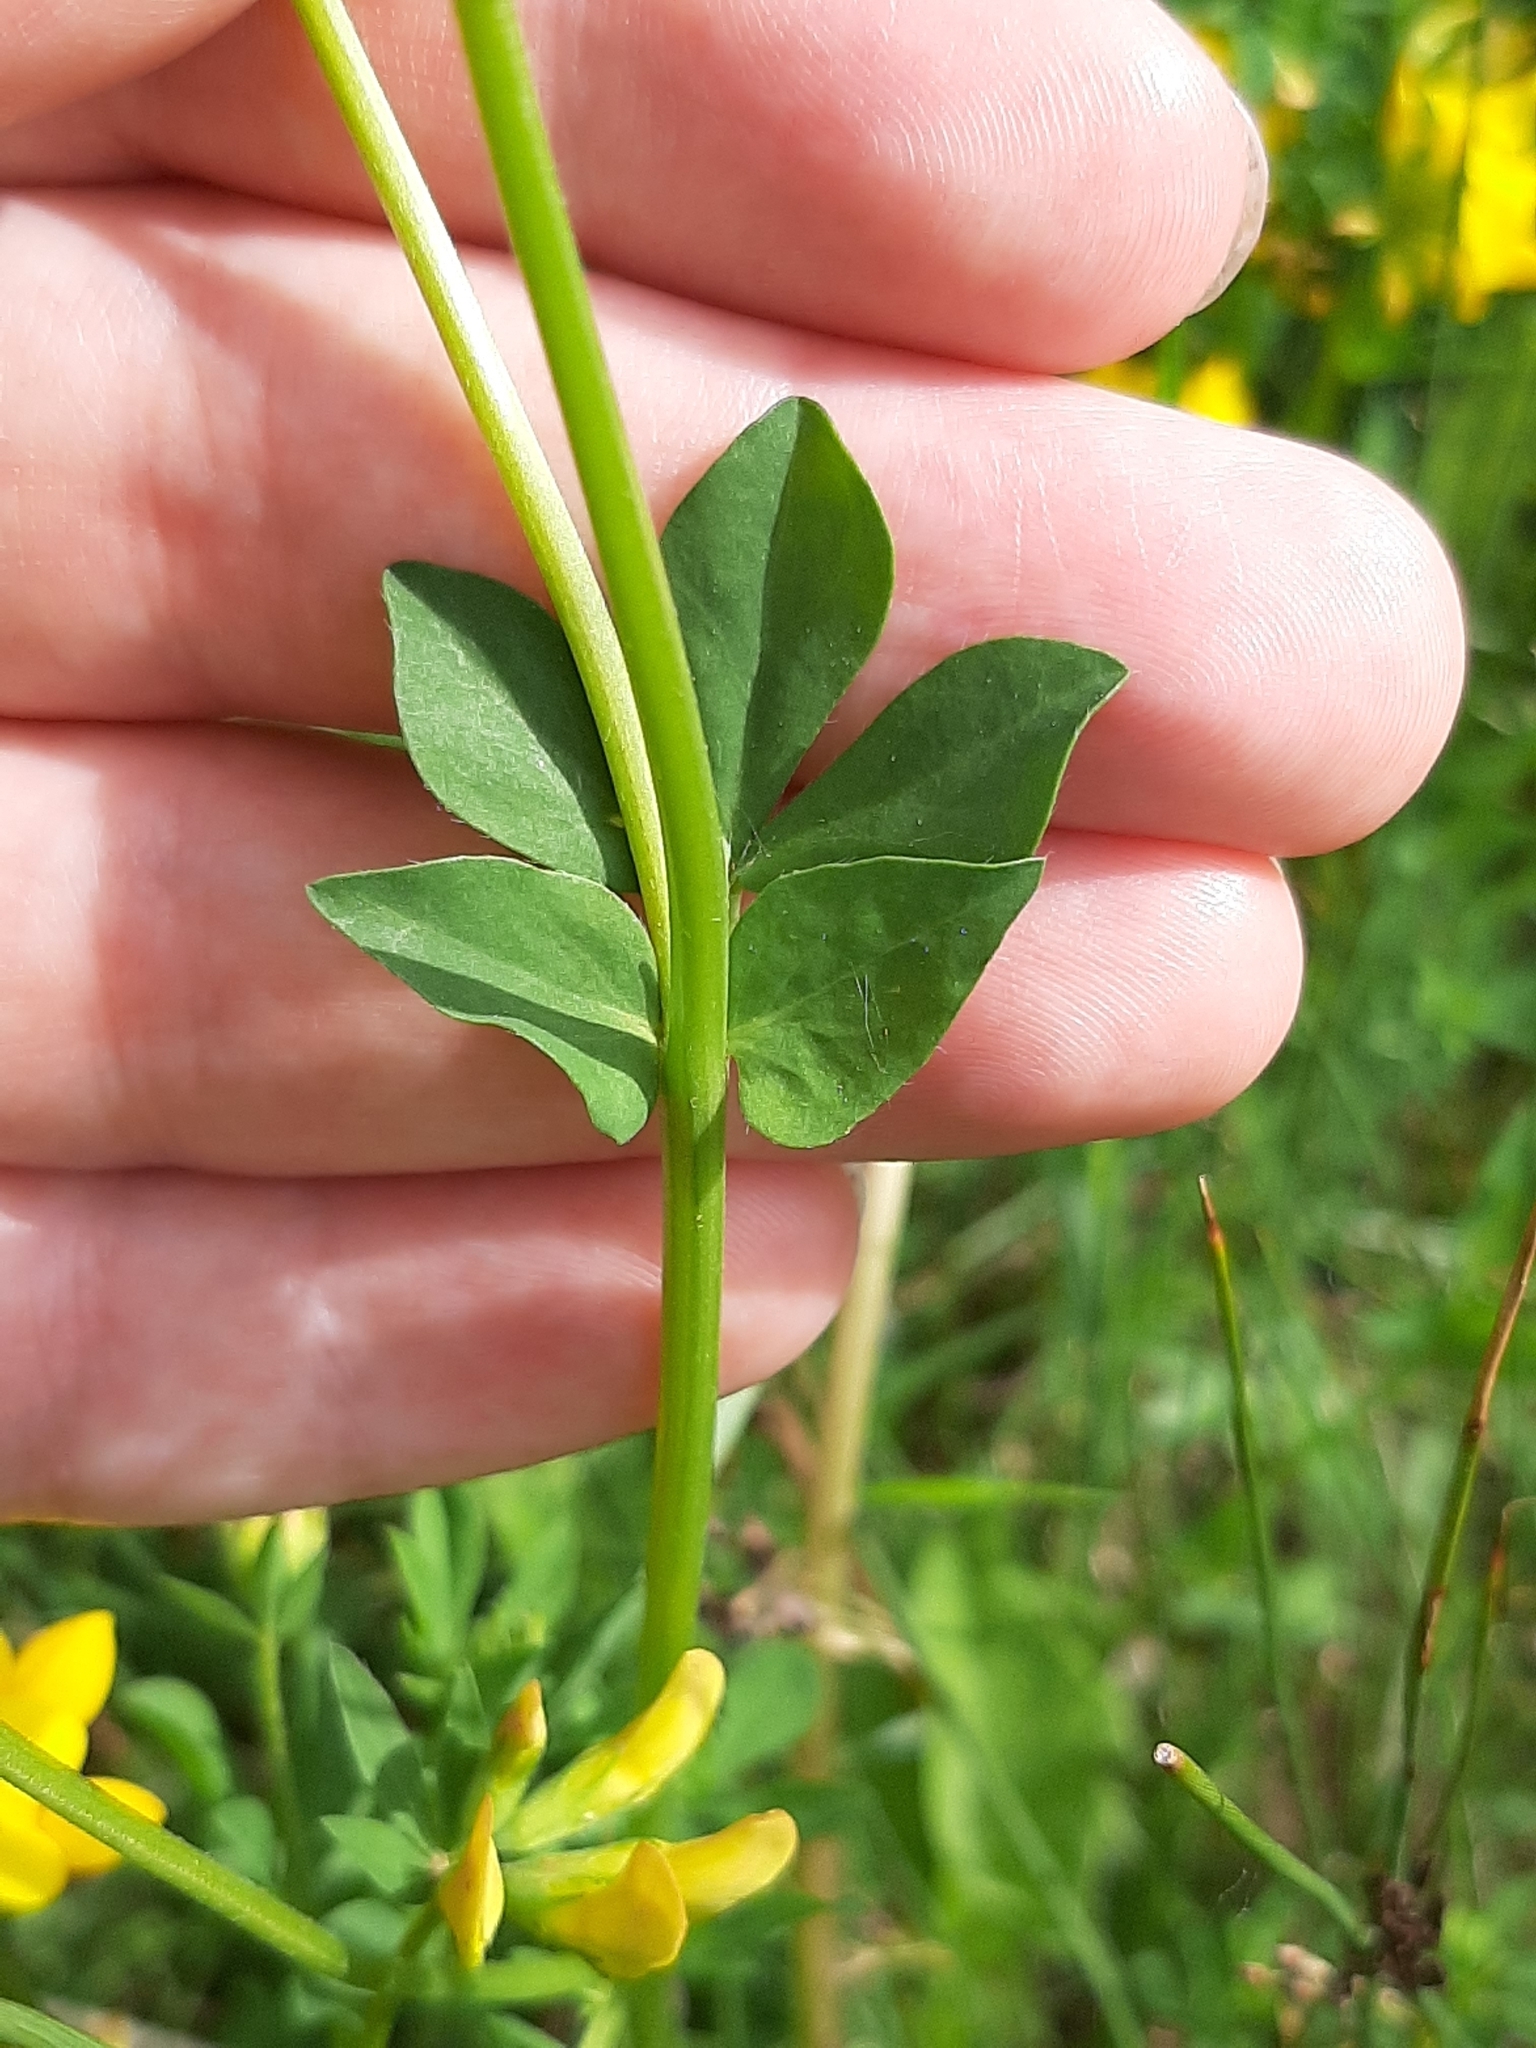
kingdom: Plantae
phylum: Tracheophyta
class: Magnoliopsida
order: Fabales
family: Fabaceae
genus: Lotus
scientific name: Lotus corniculatus
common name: Common bird's-foot-trefoil
